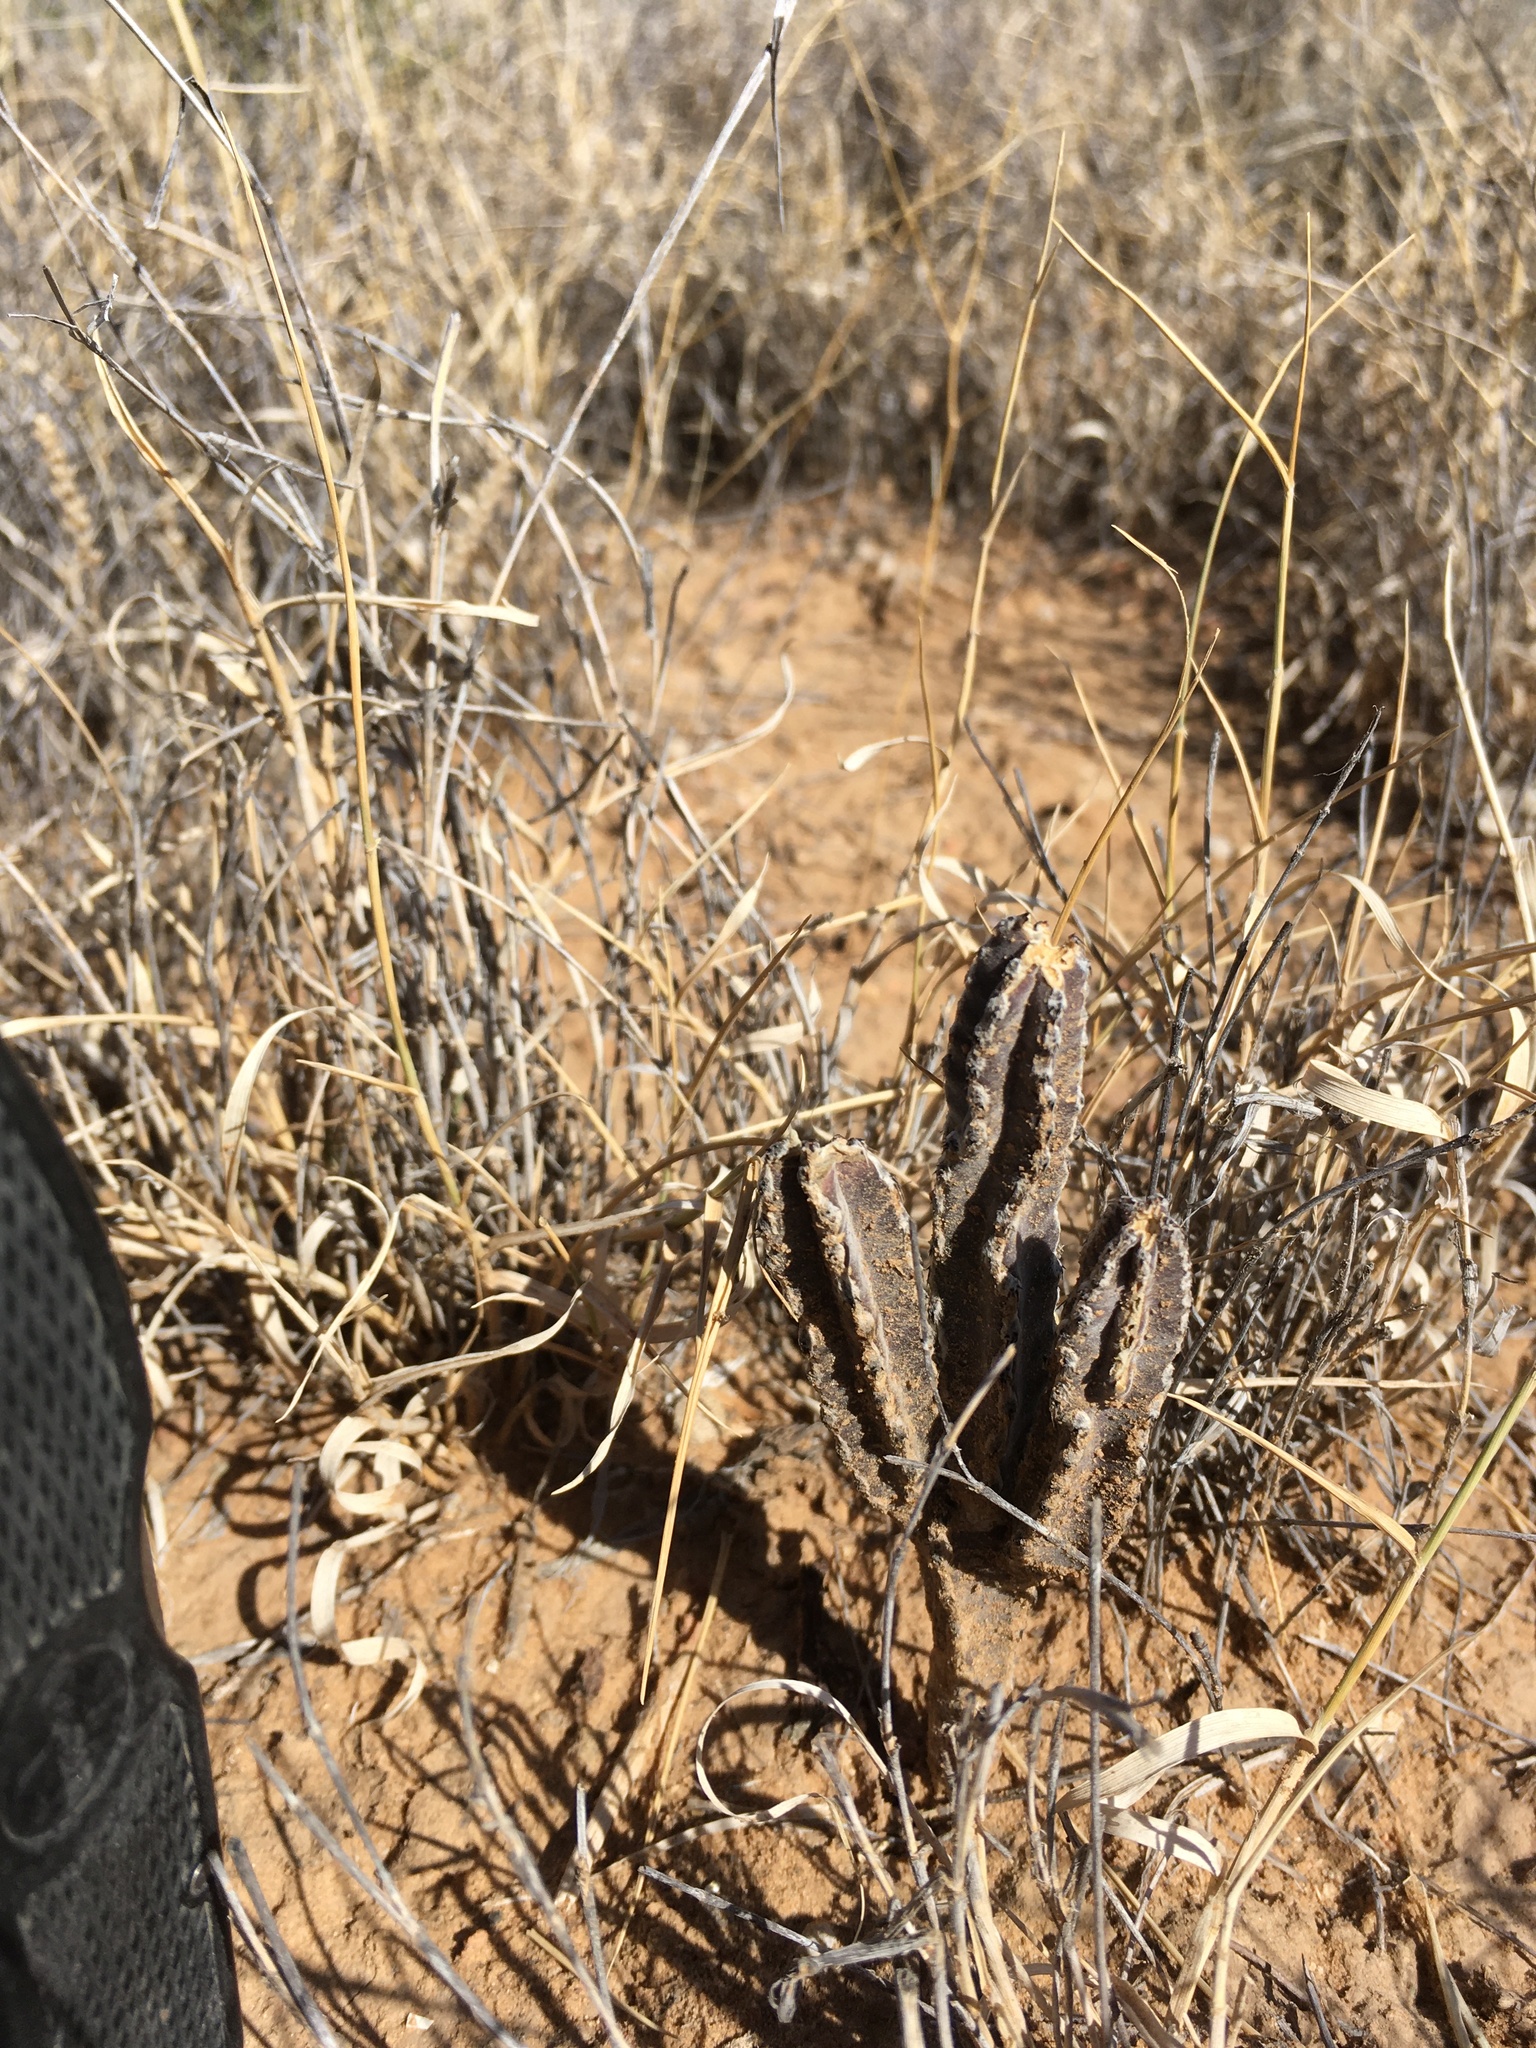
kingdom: Plantae
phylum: Tracheophyta
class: Magnoliopsida
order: Caryophyllales
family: Cactaceae
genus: Peniocereus
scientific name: Peniocereus greggii
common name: Desert night-blooming cereus
